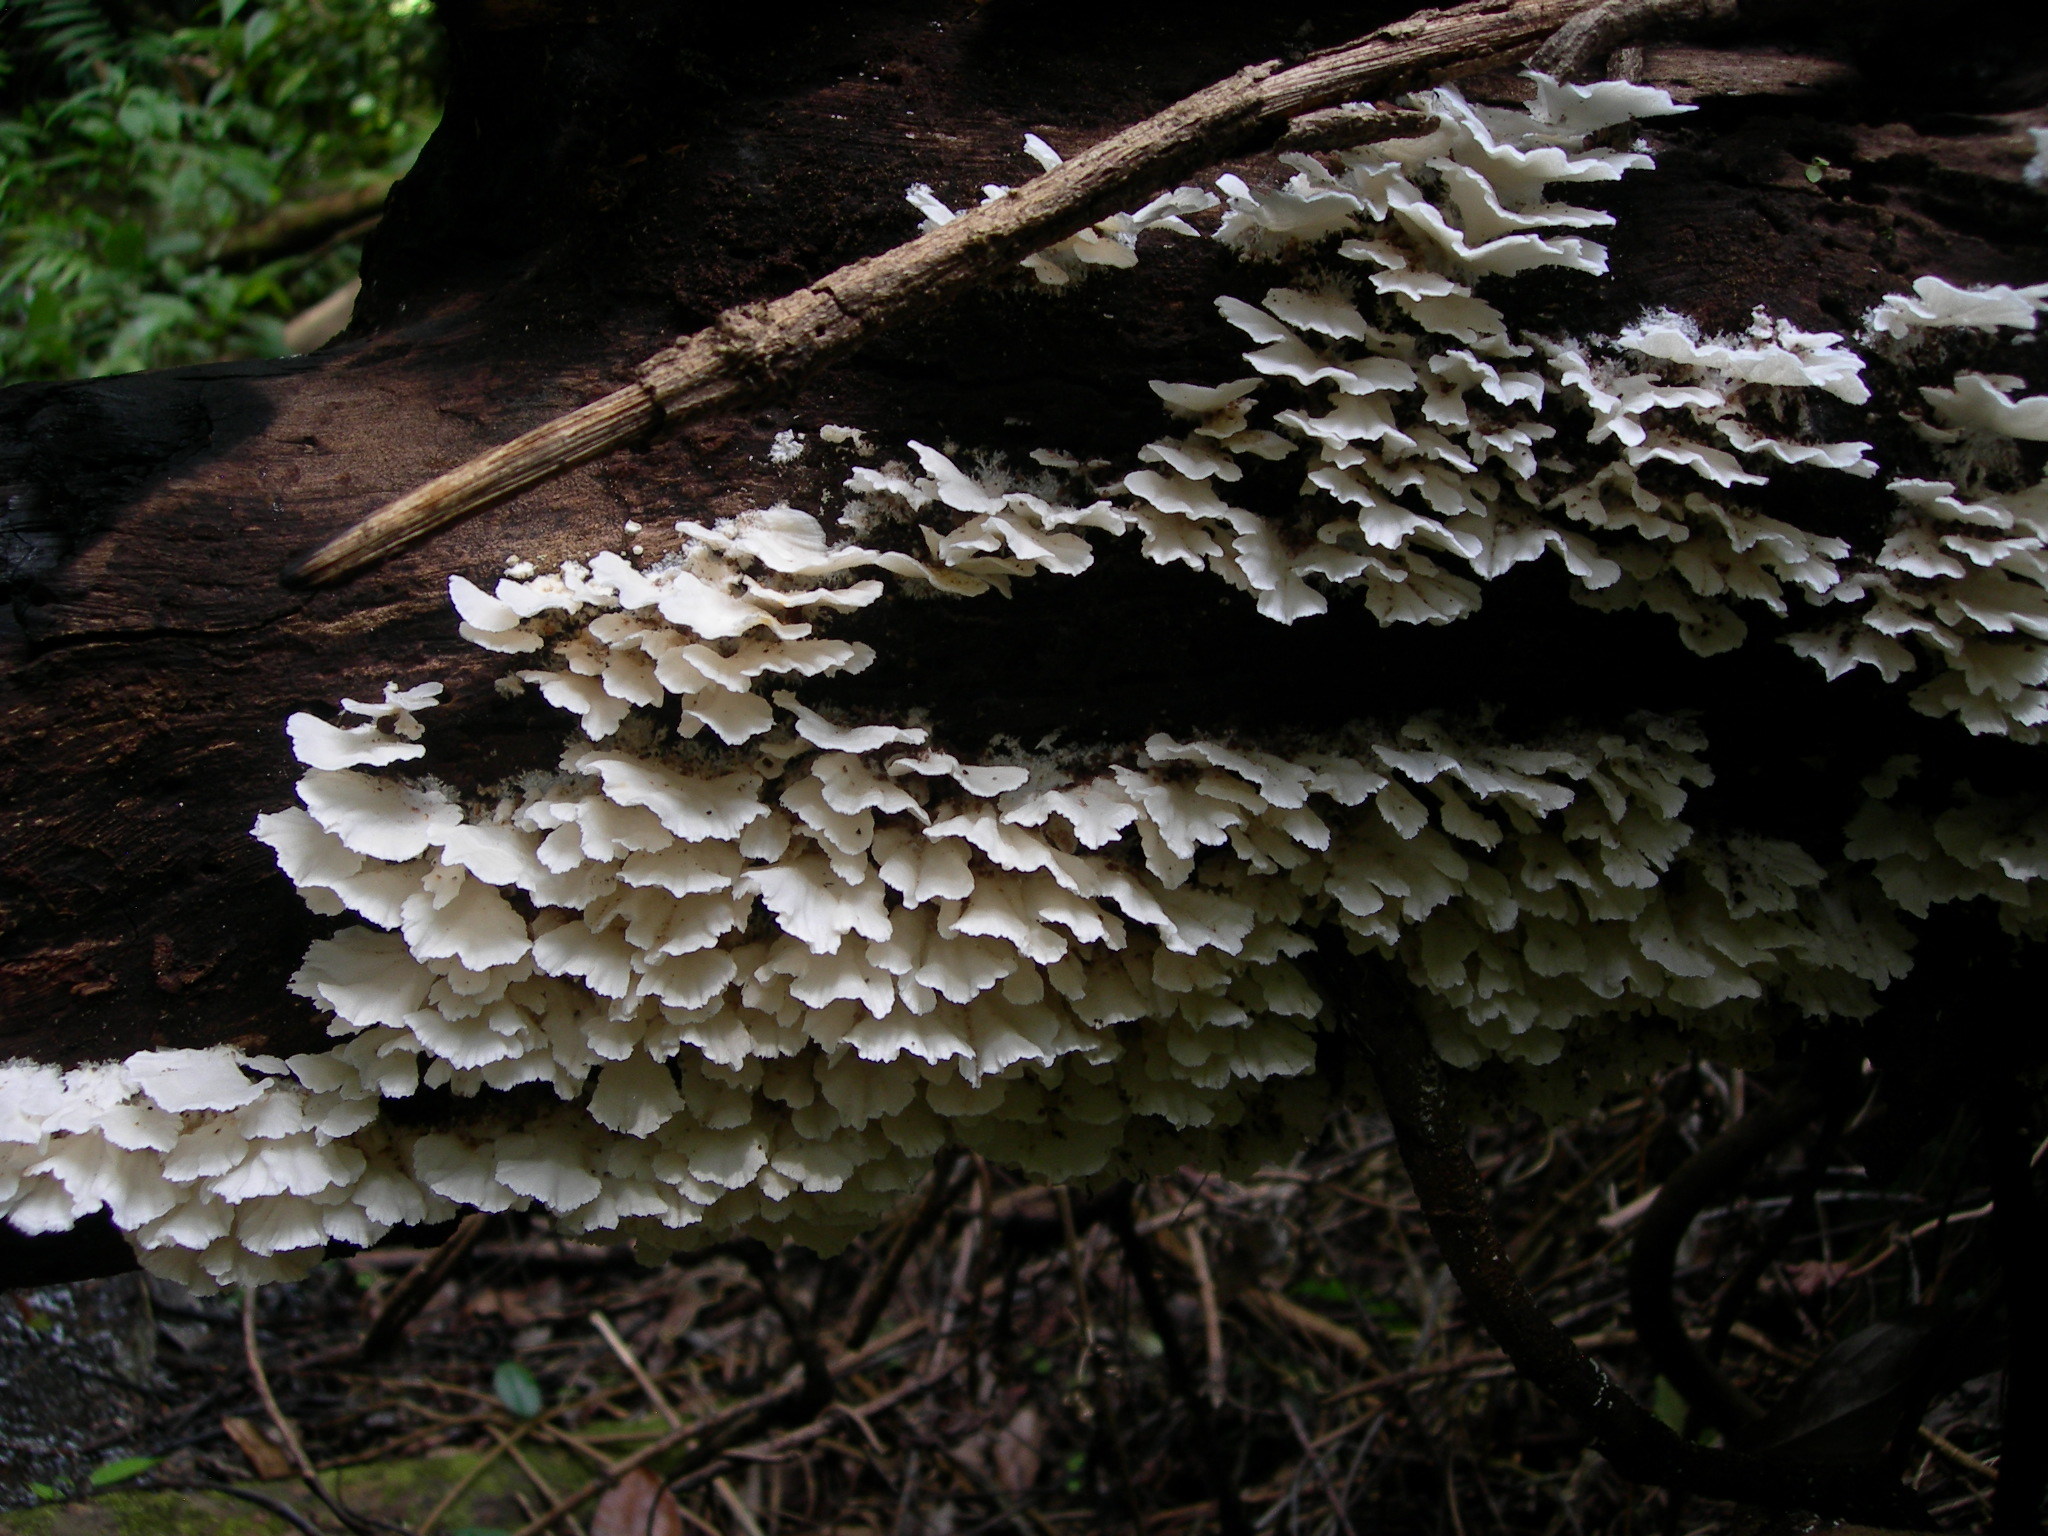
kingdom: Fungi
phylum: Basidiomycota
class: Agaricomycetes
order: Polyporales
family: Polyporaceae
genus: Trametes
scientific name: Trametes membranacea
